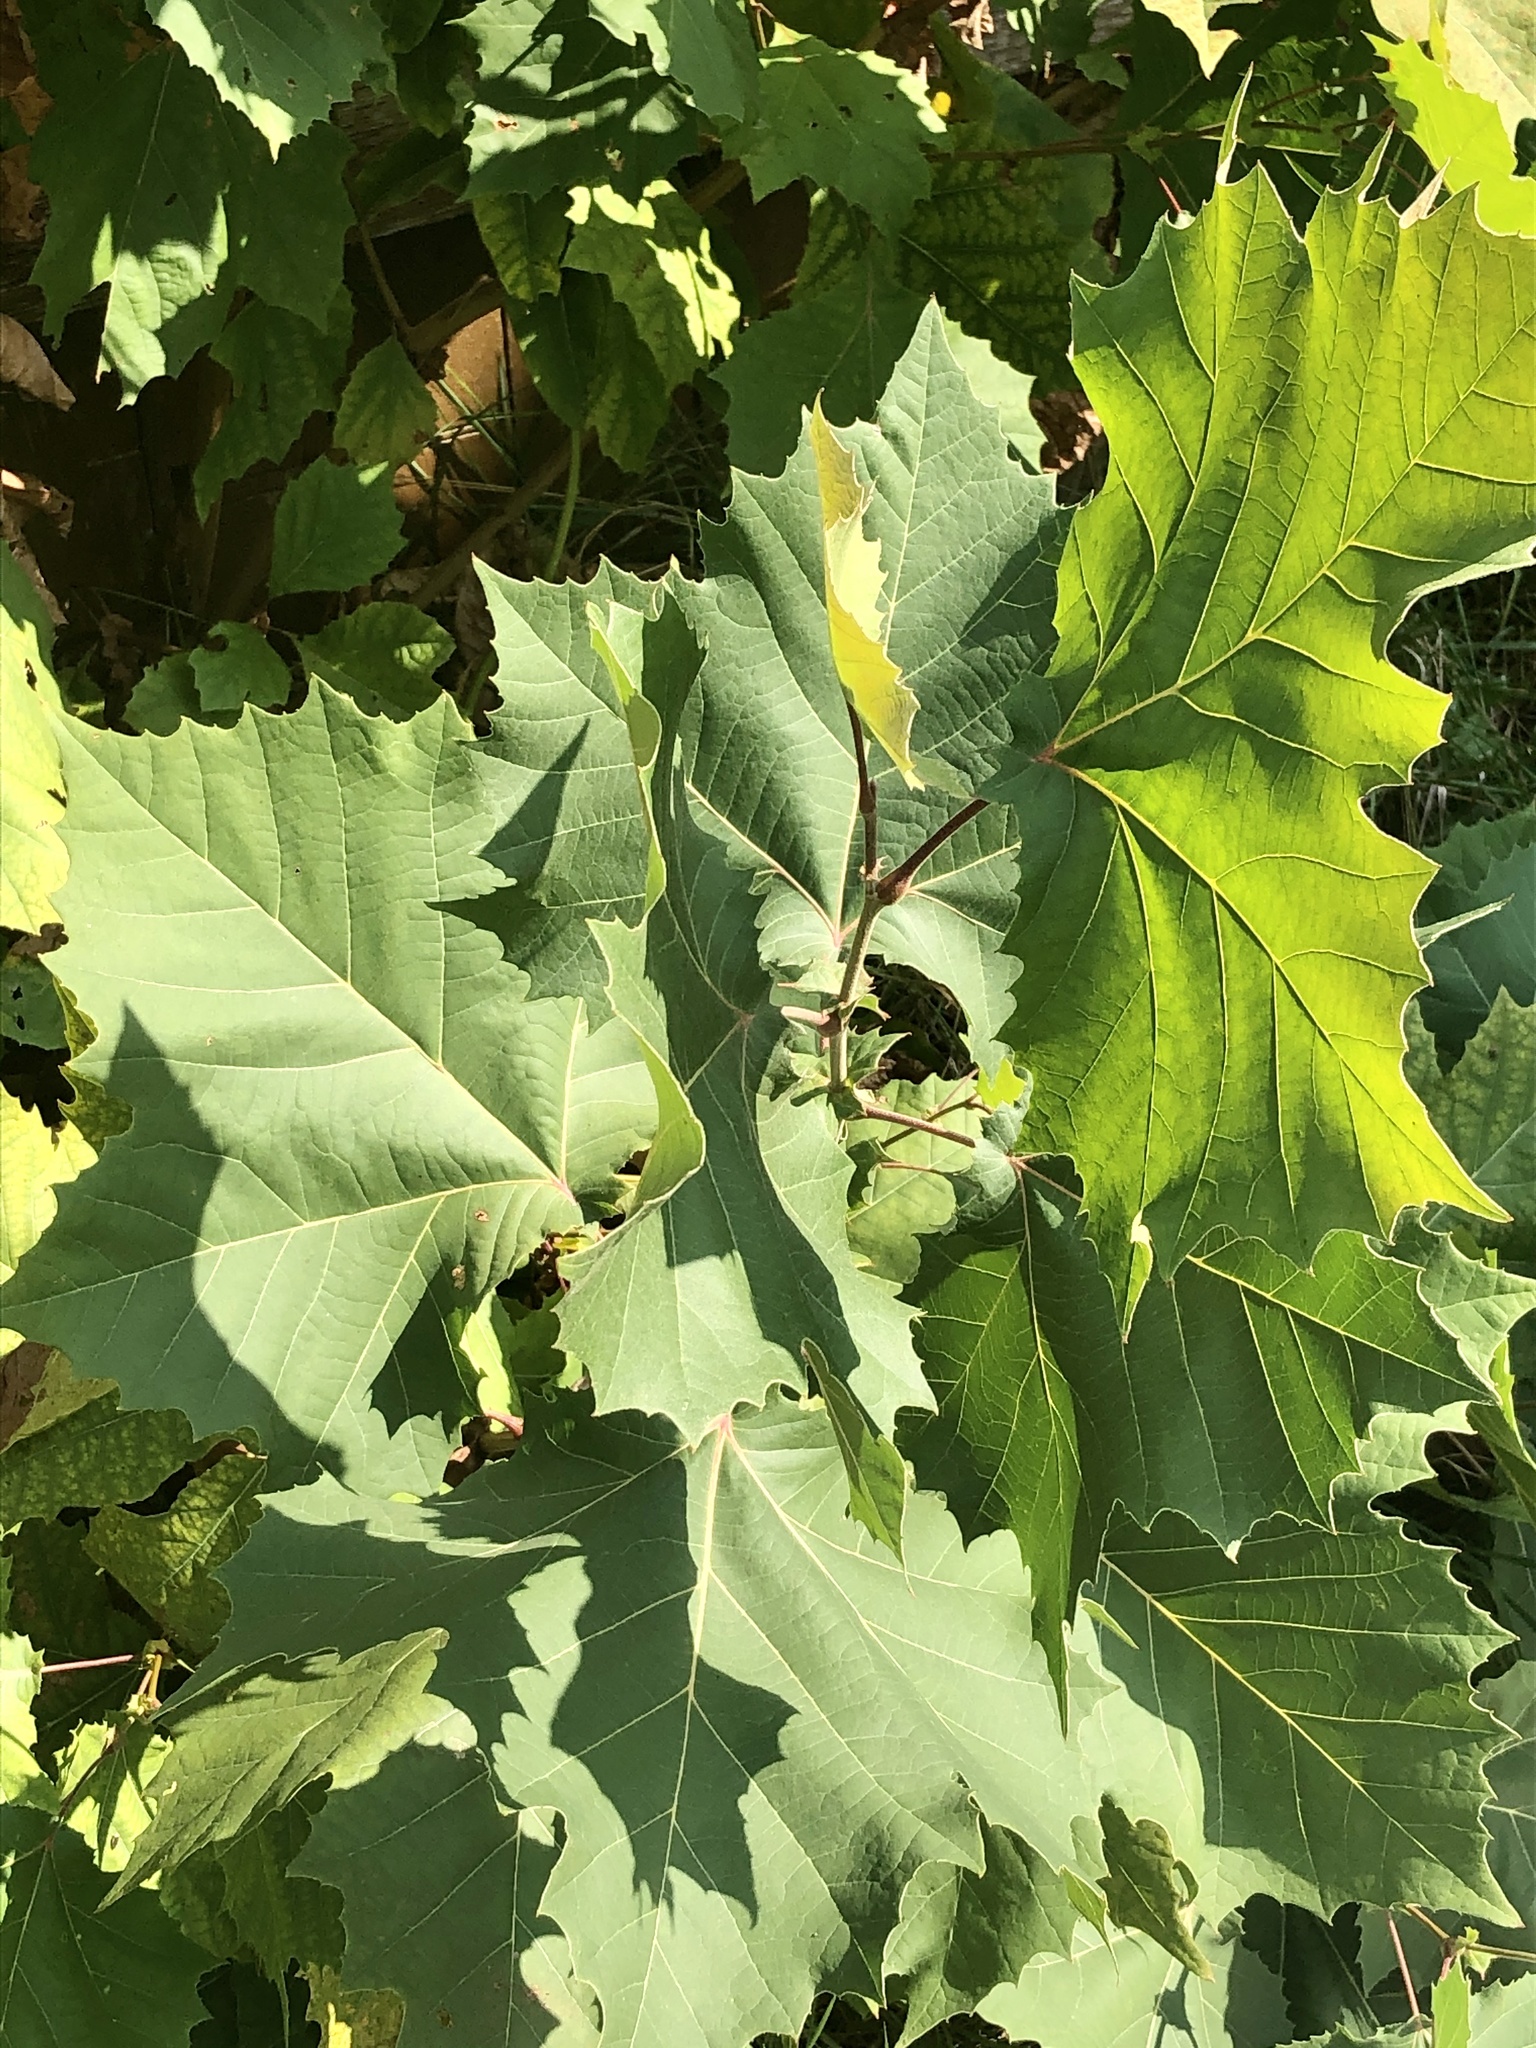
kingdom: Plantae
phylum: Tracheophyta
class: Magnoliopsida
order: Proteales
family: Platanaceae
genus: Platanus
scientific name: Platanus occidentalis
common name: American sycamore
